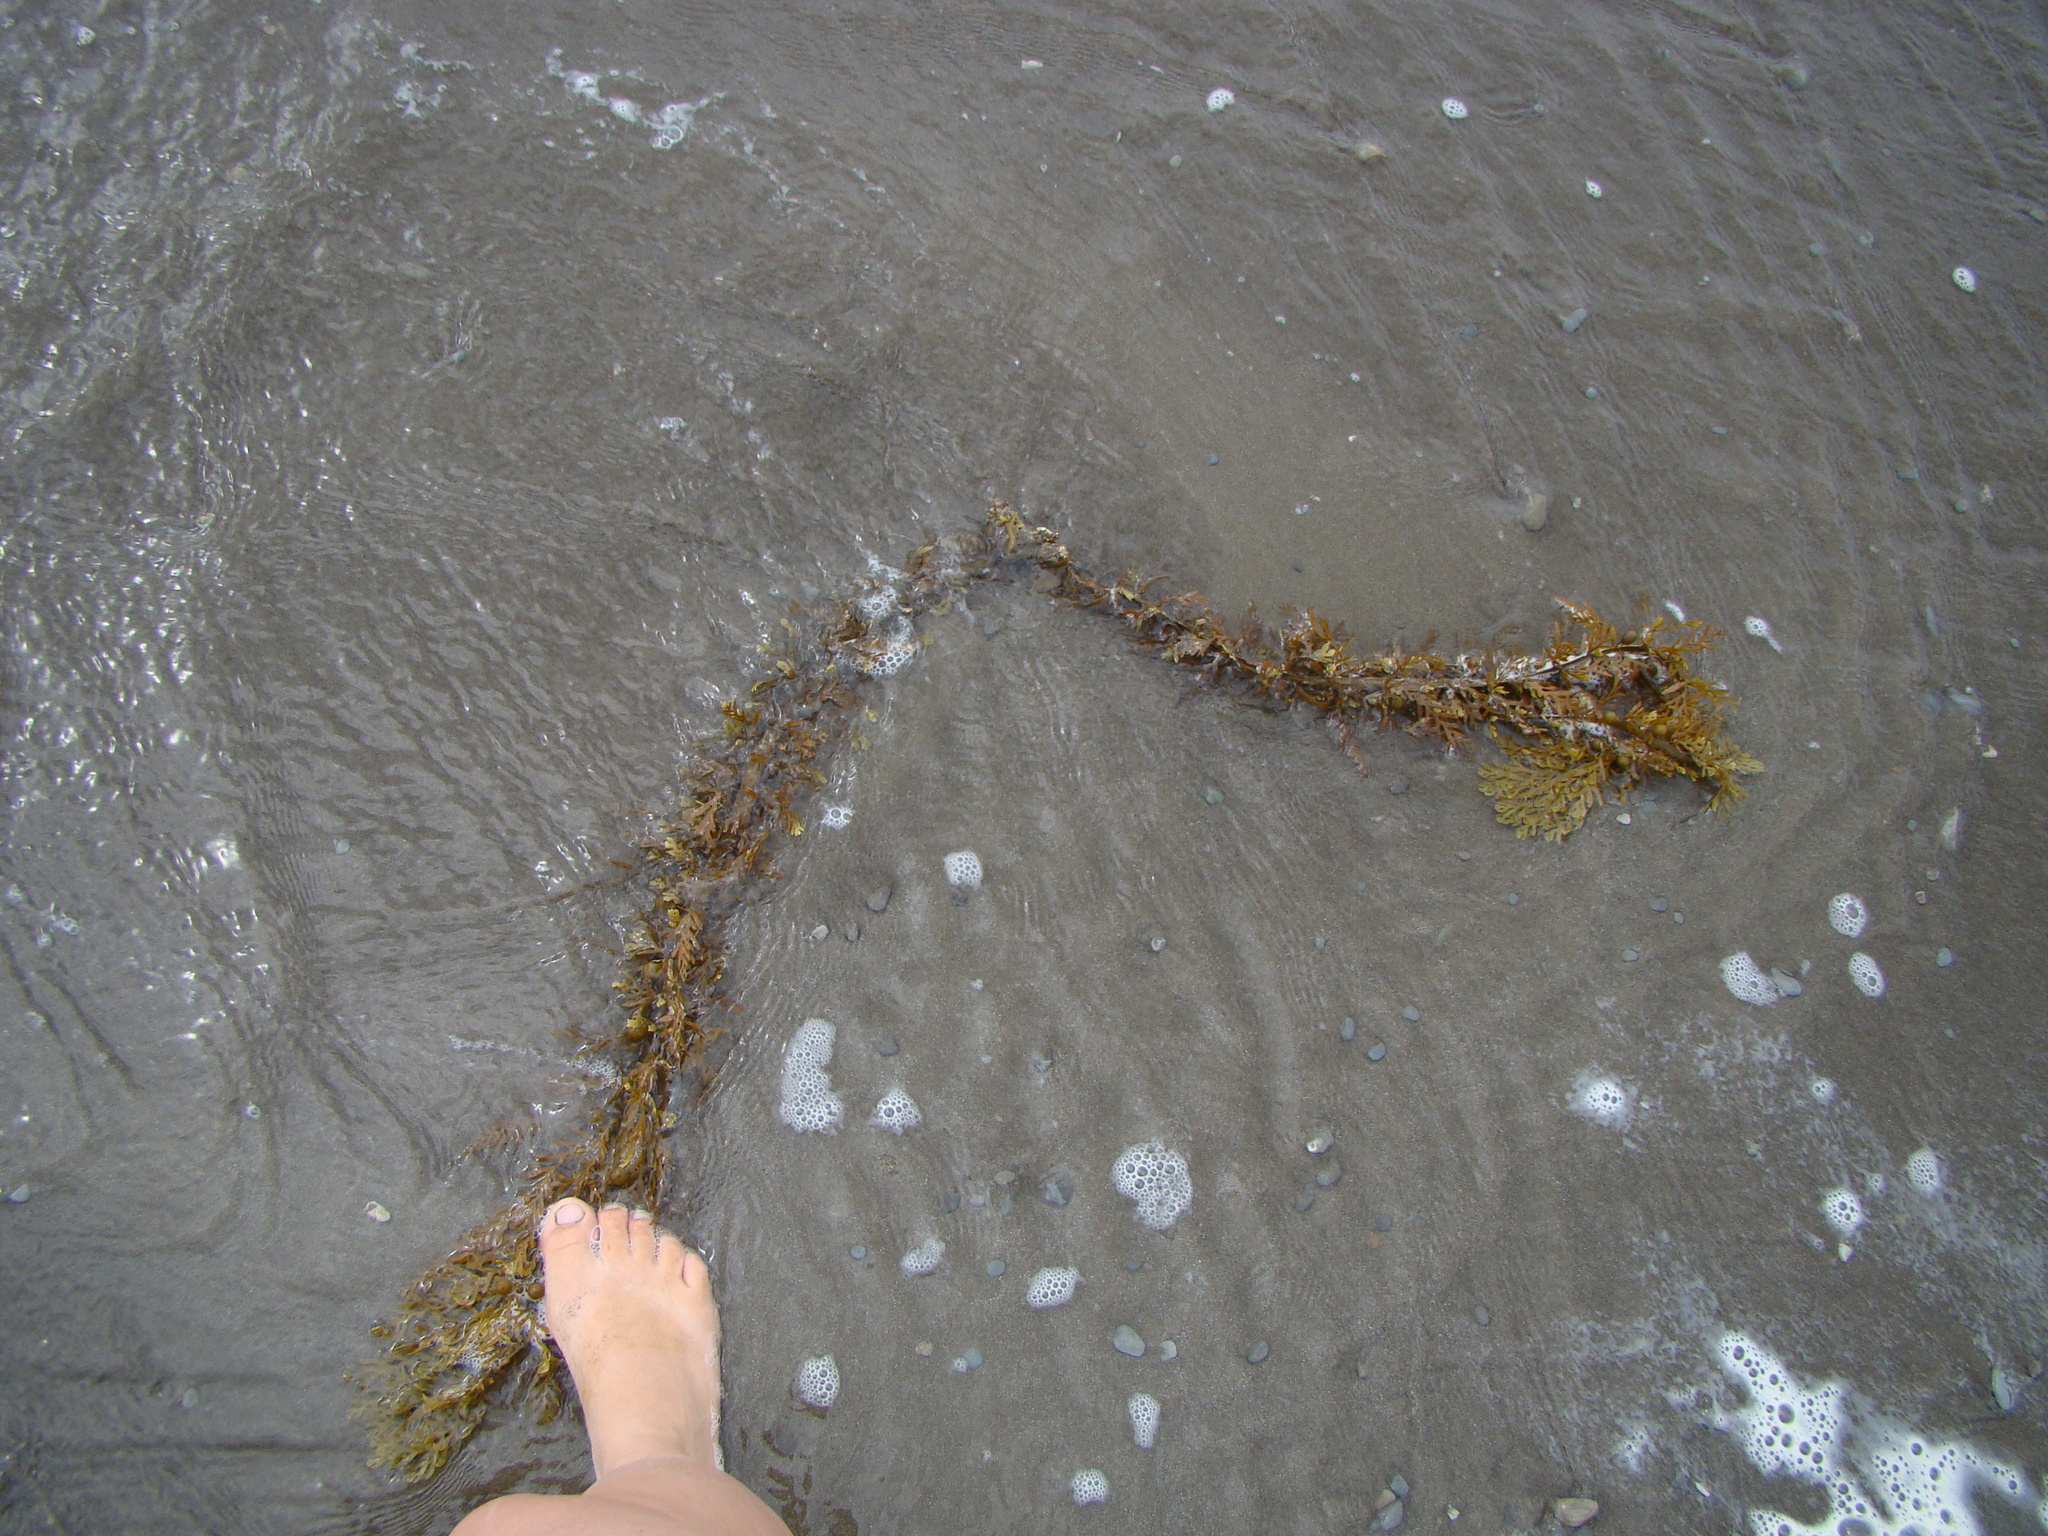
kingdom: Chromista
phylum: Ochrophyta
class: Phaeophyceae
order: Fucales
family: Sargassaceae
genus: Carpophyllum
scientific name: Carpophyllum plumosum
